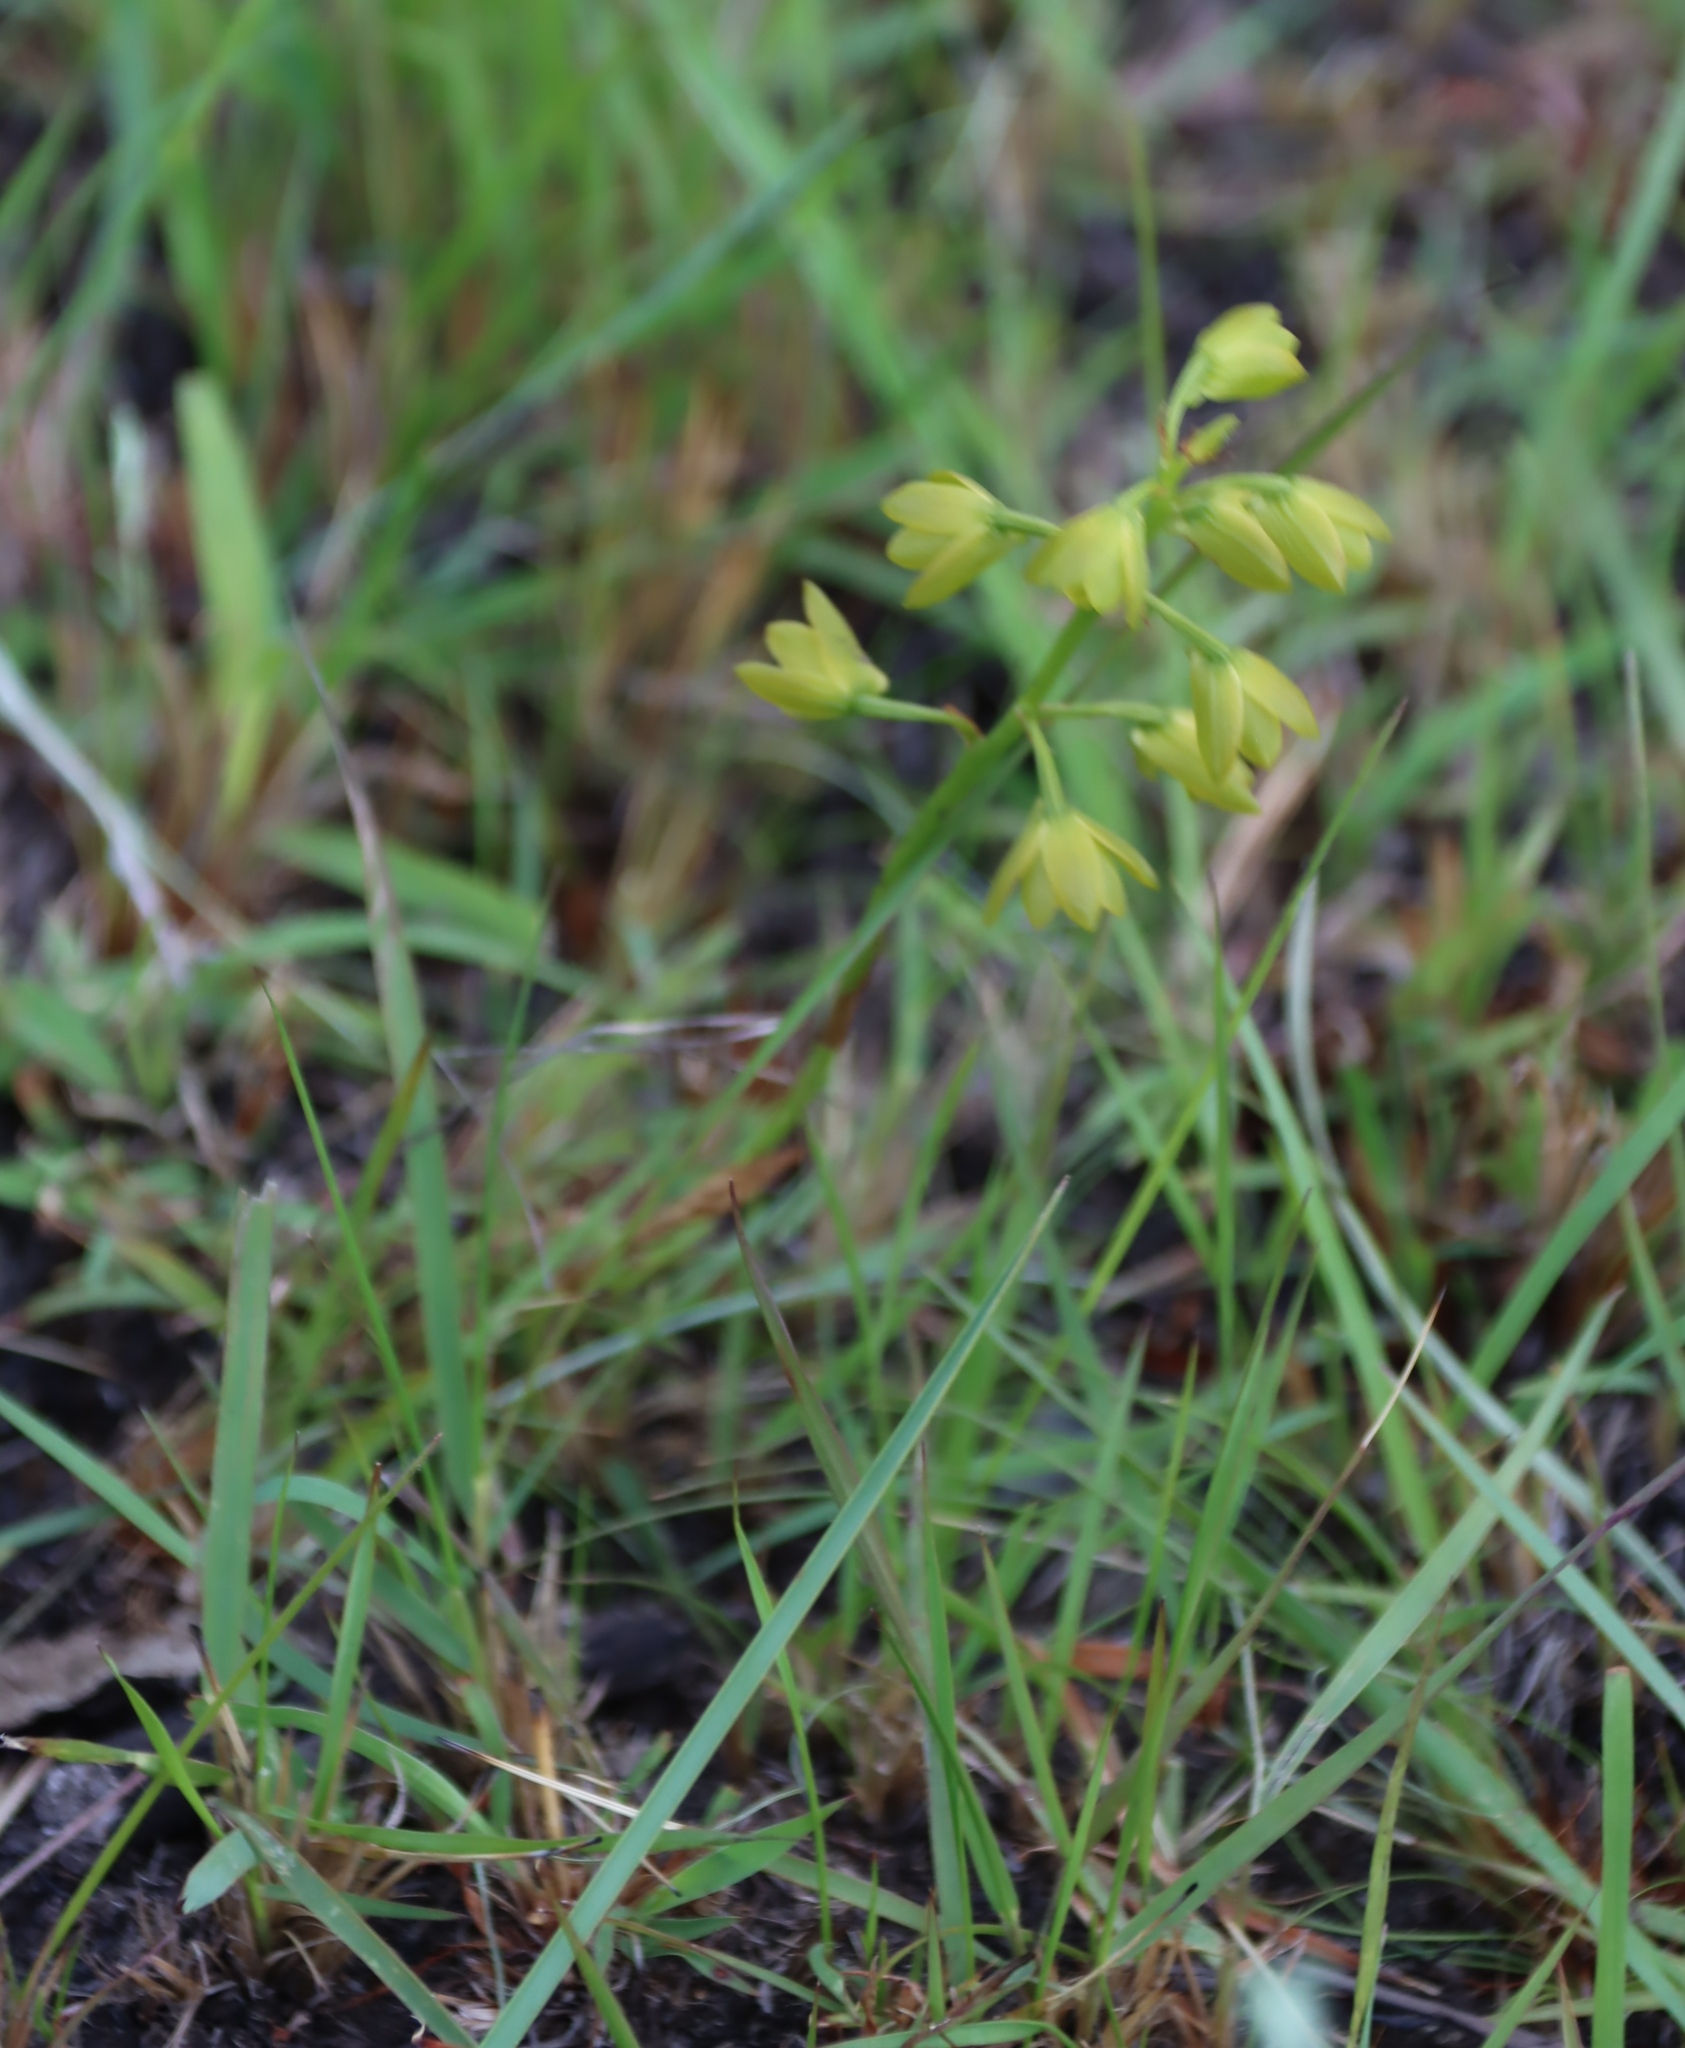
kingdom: Plantae
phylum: Tracheophyta
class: Liliopsida
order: Asparagales
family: Orchidaceae
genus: Eulophia
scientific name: Eulophia chlorantha
